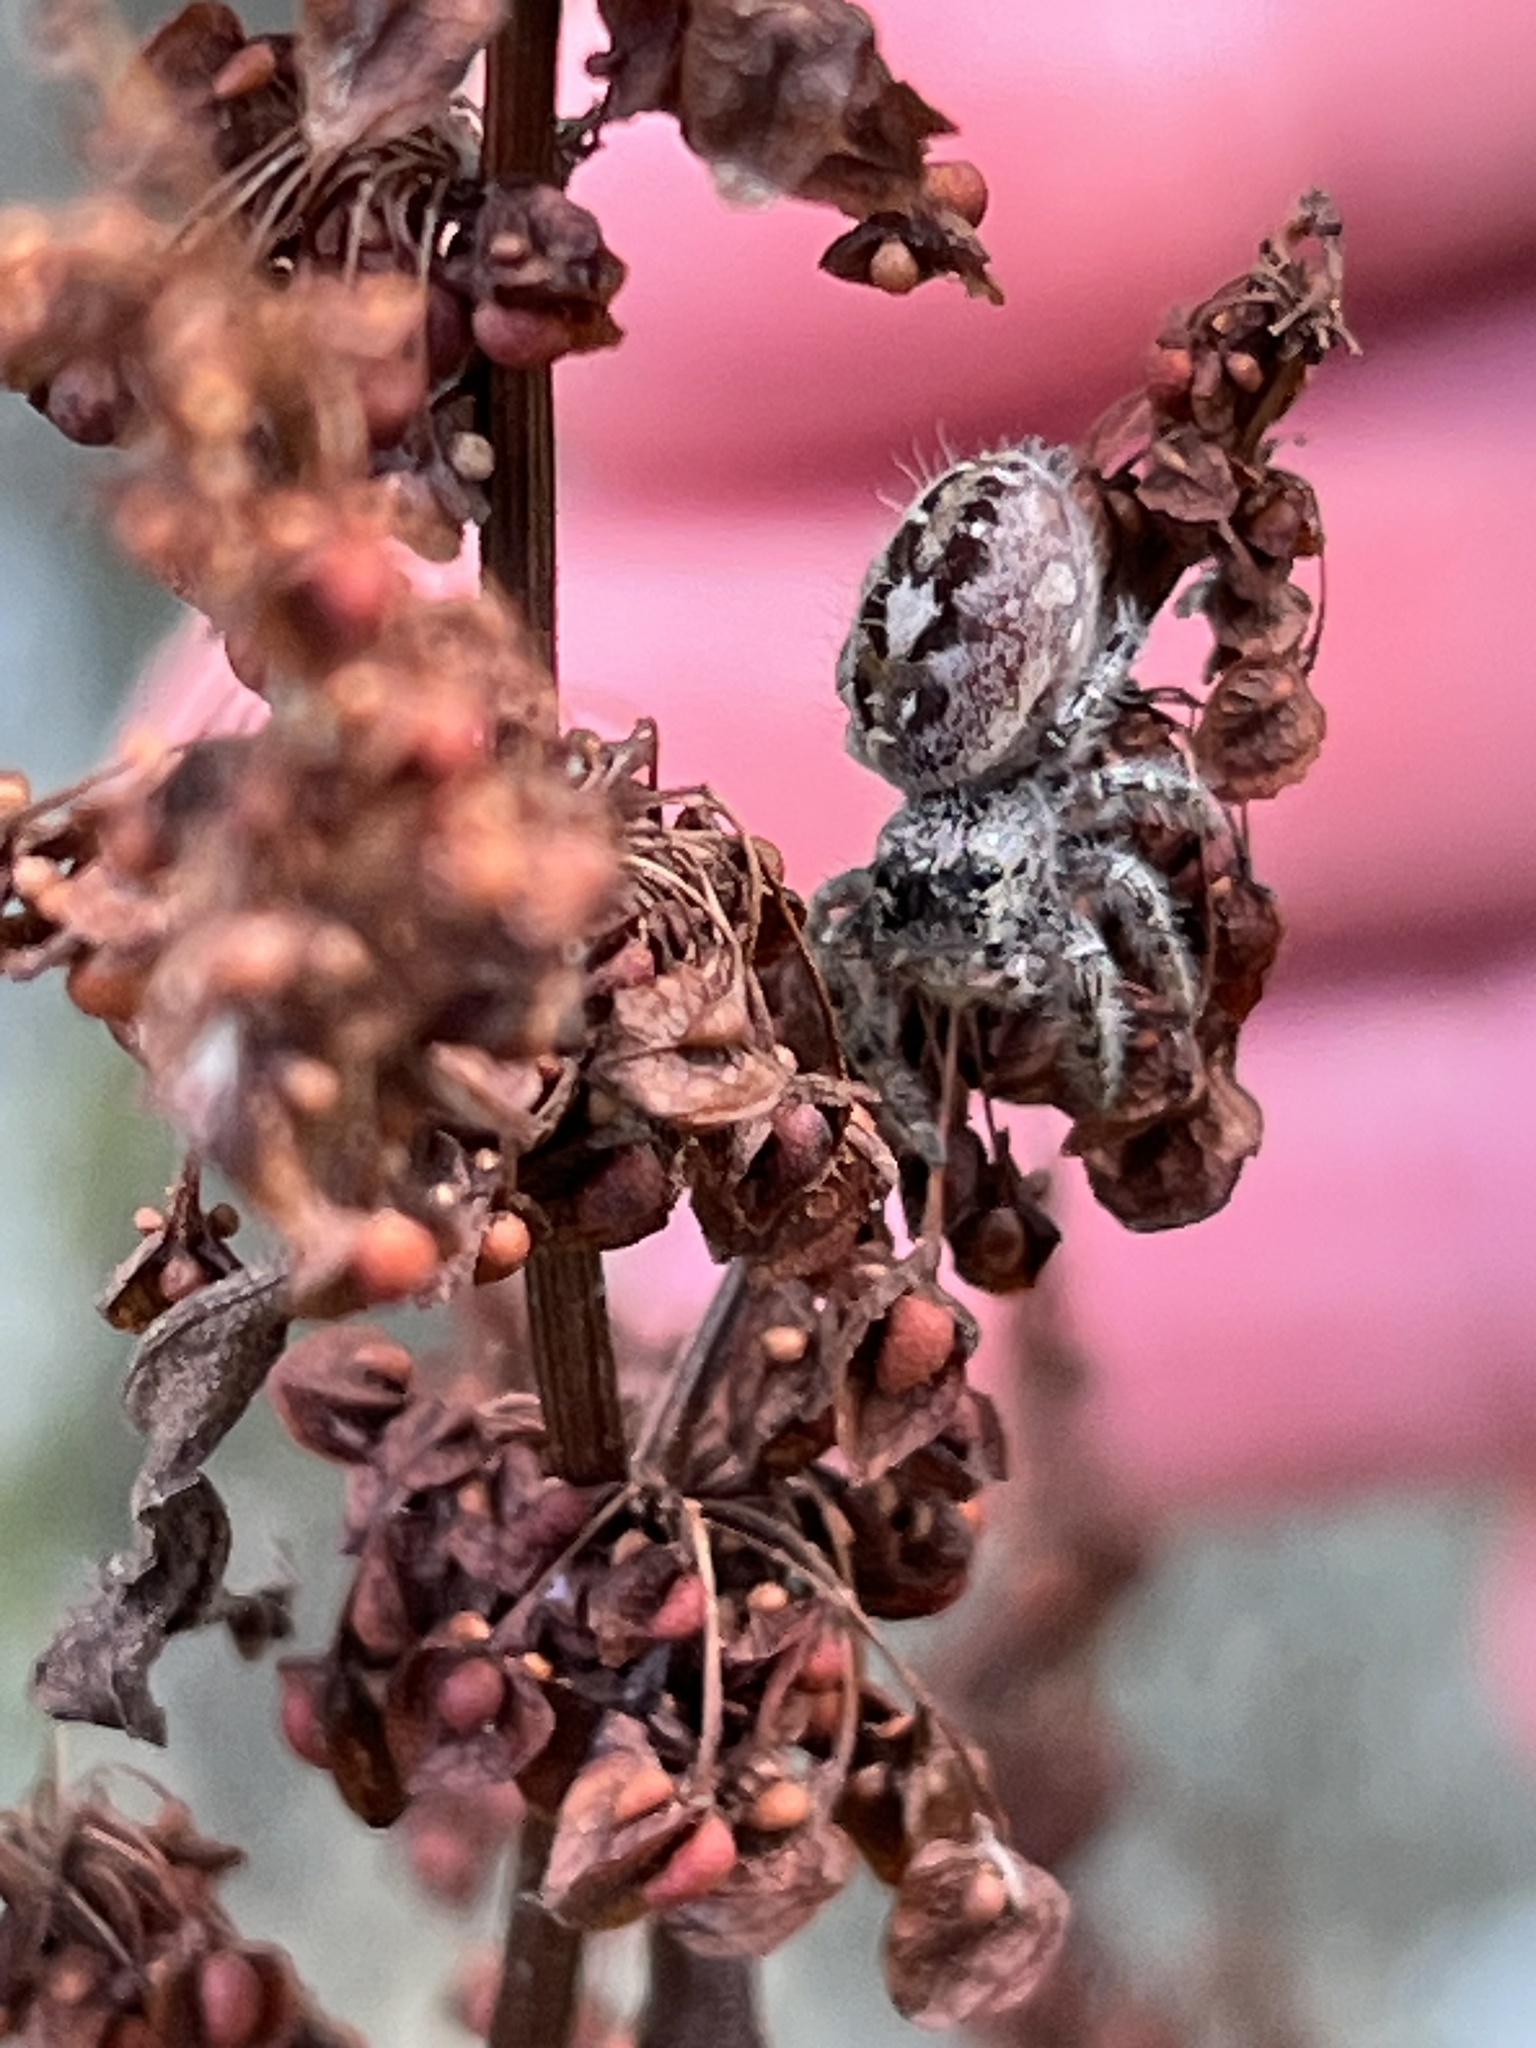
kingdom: Animalia
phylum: Arthropoda
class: Arachnida
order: Araneae
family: Salticidae
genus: Phidippus
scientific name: Phidippus putnami
